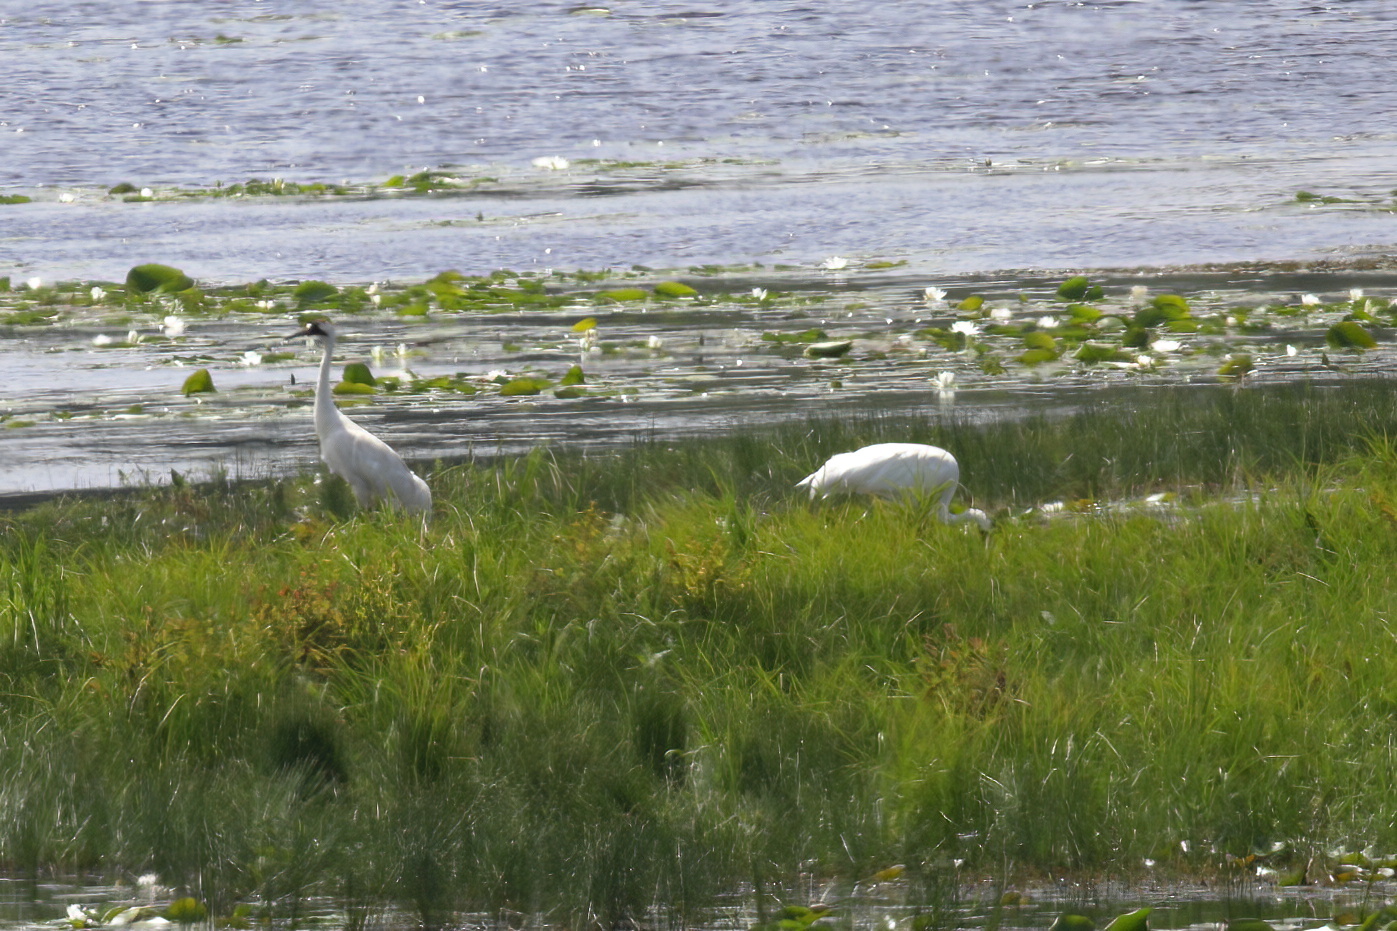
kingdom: Animalia
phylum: Chordata
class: Aves
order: Gruiformes
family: Gruidae
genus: Grus
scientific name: Grus americana
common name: Whooping crane
